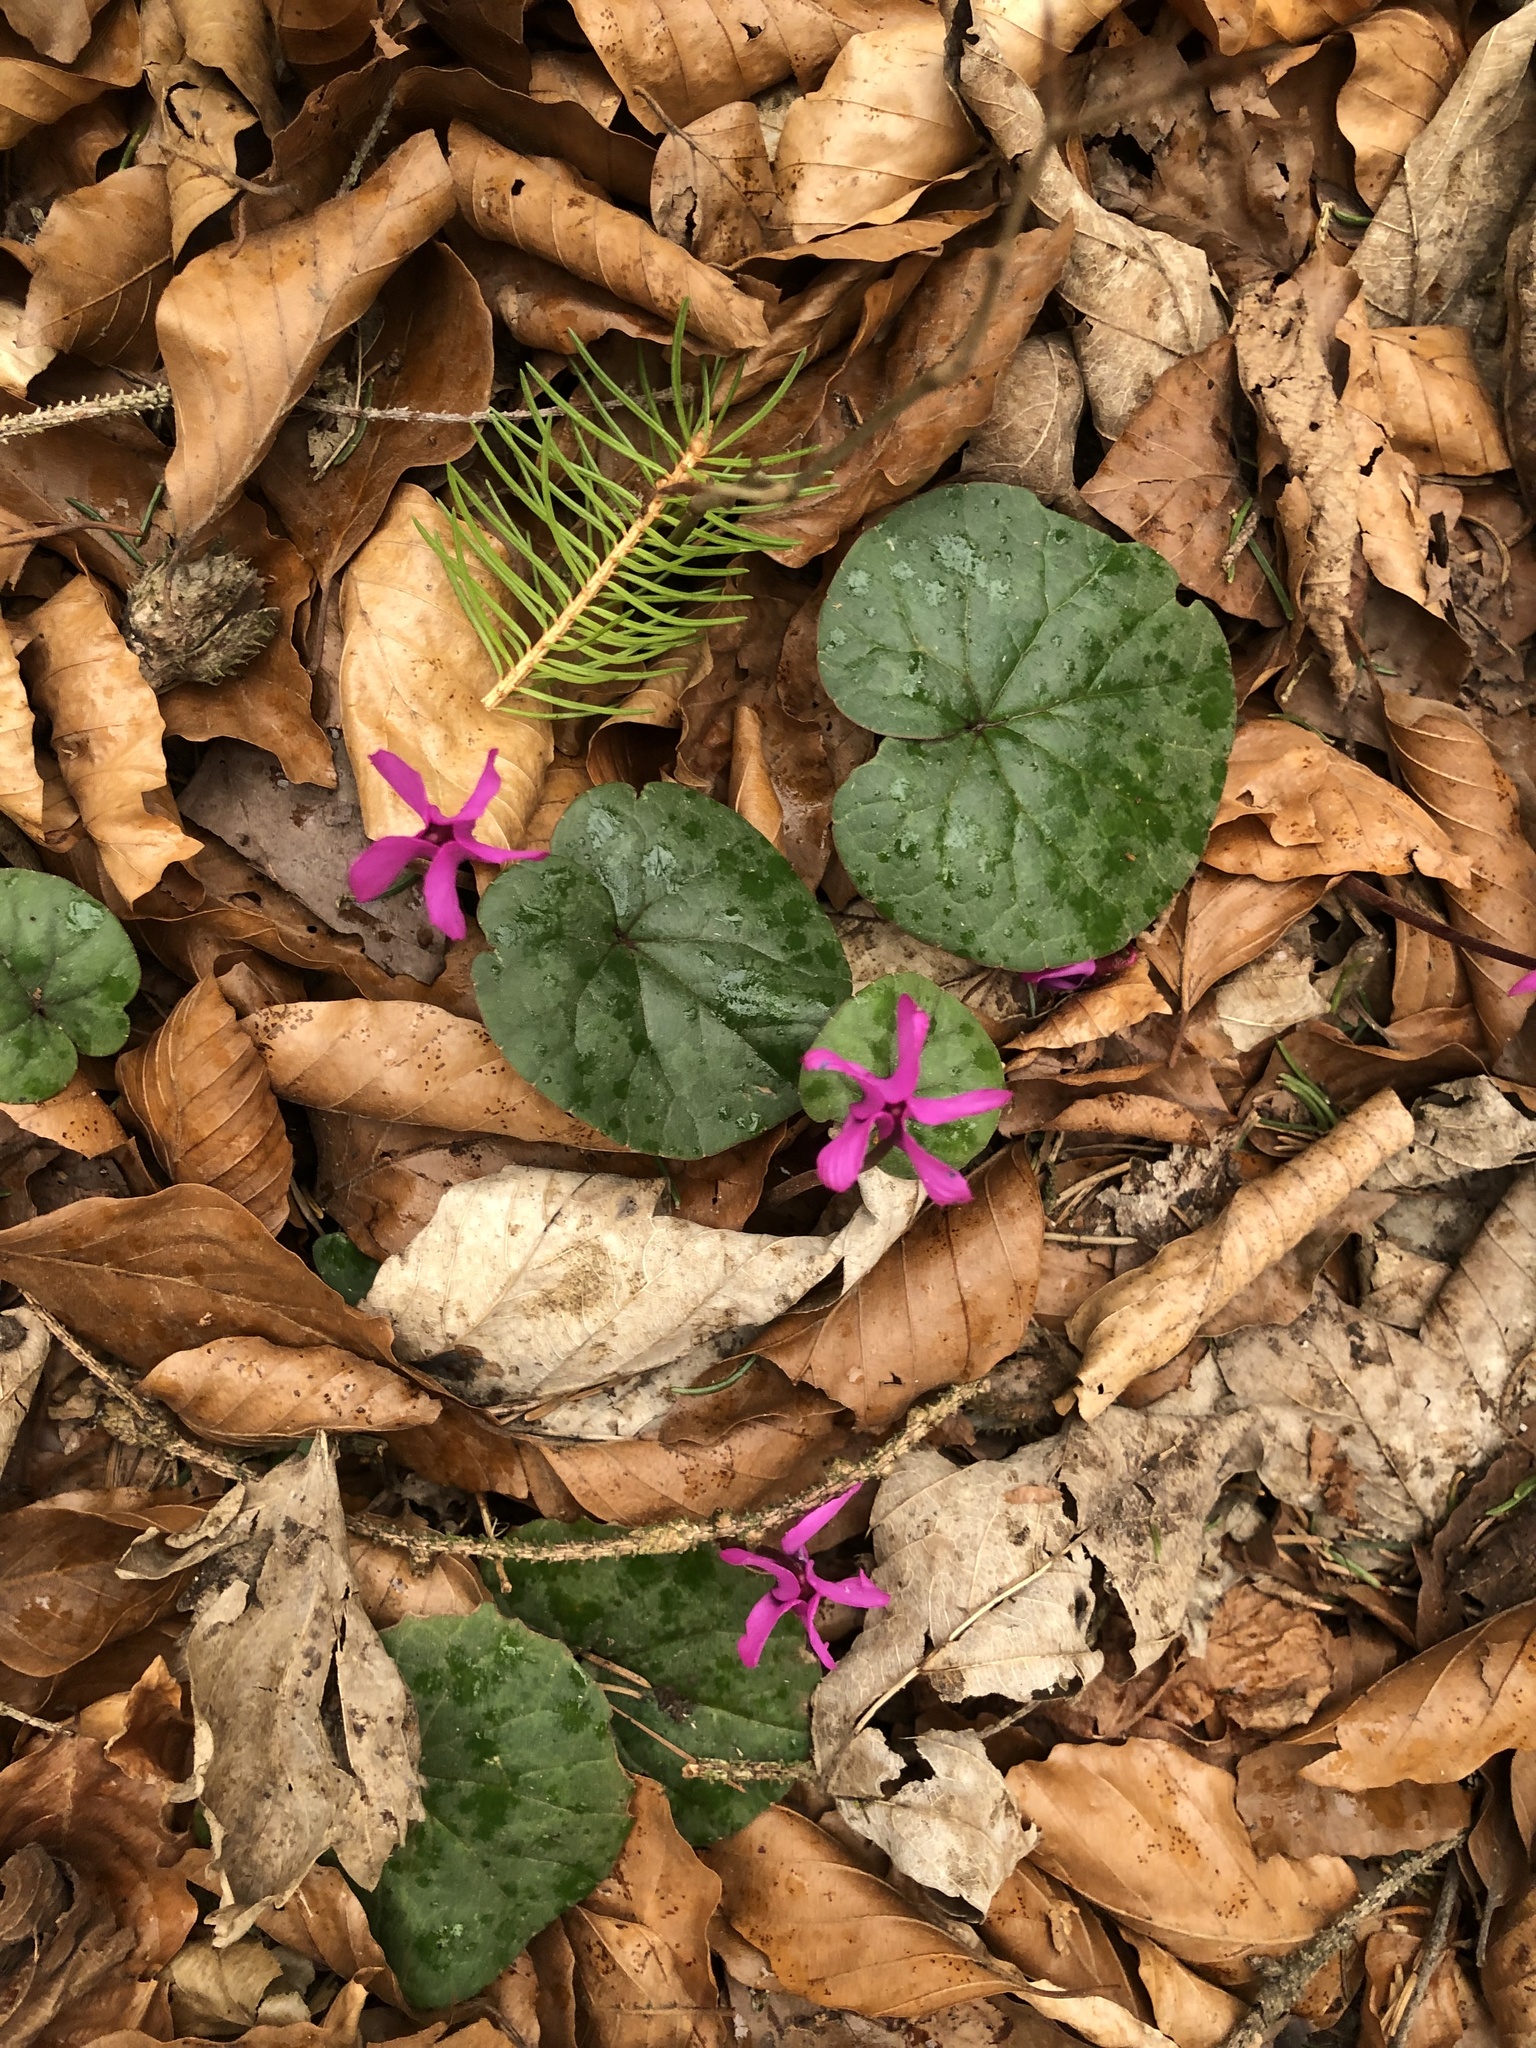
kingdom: Plantae
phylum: Tracheophyta
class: Magnoliopsida
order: Ericales
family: Primulaceae
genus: Cyclamen
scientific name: Cyclamen coum
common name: Eastern sowbread
